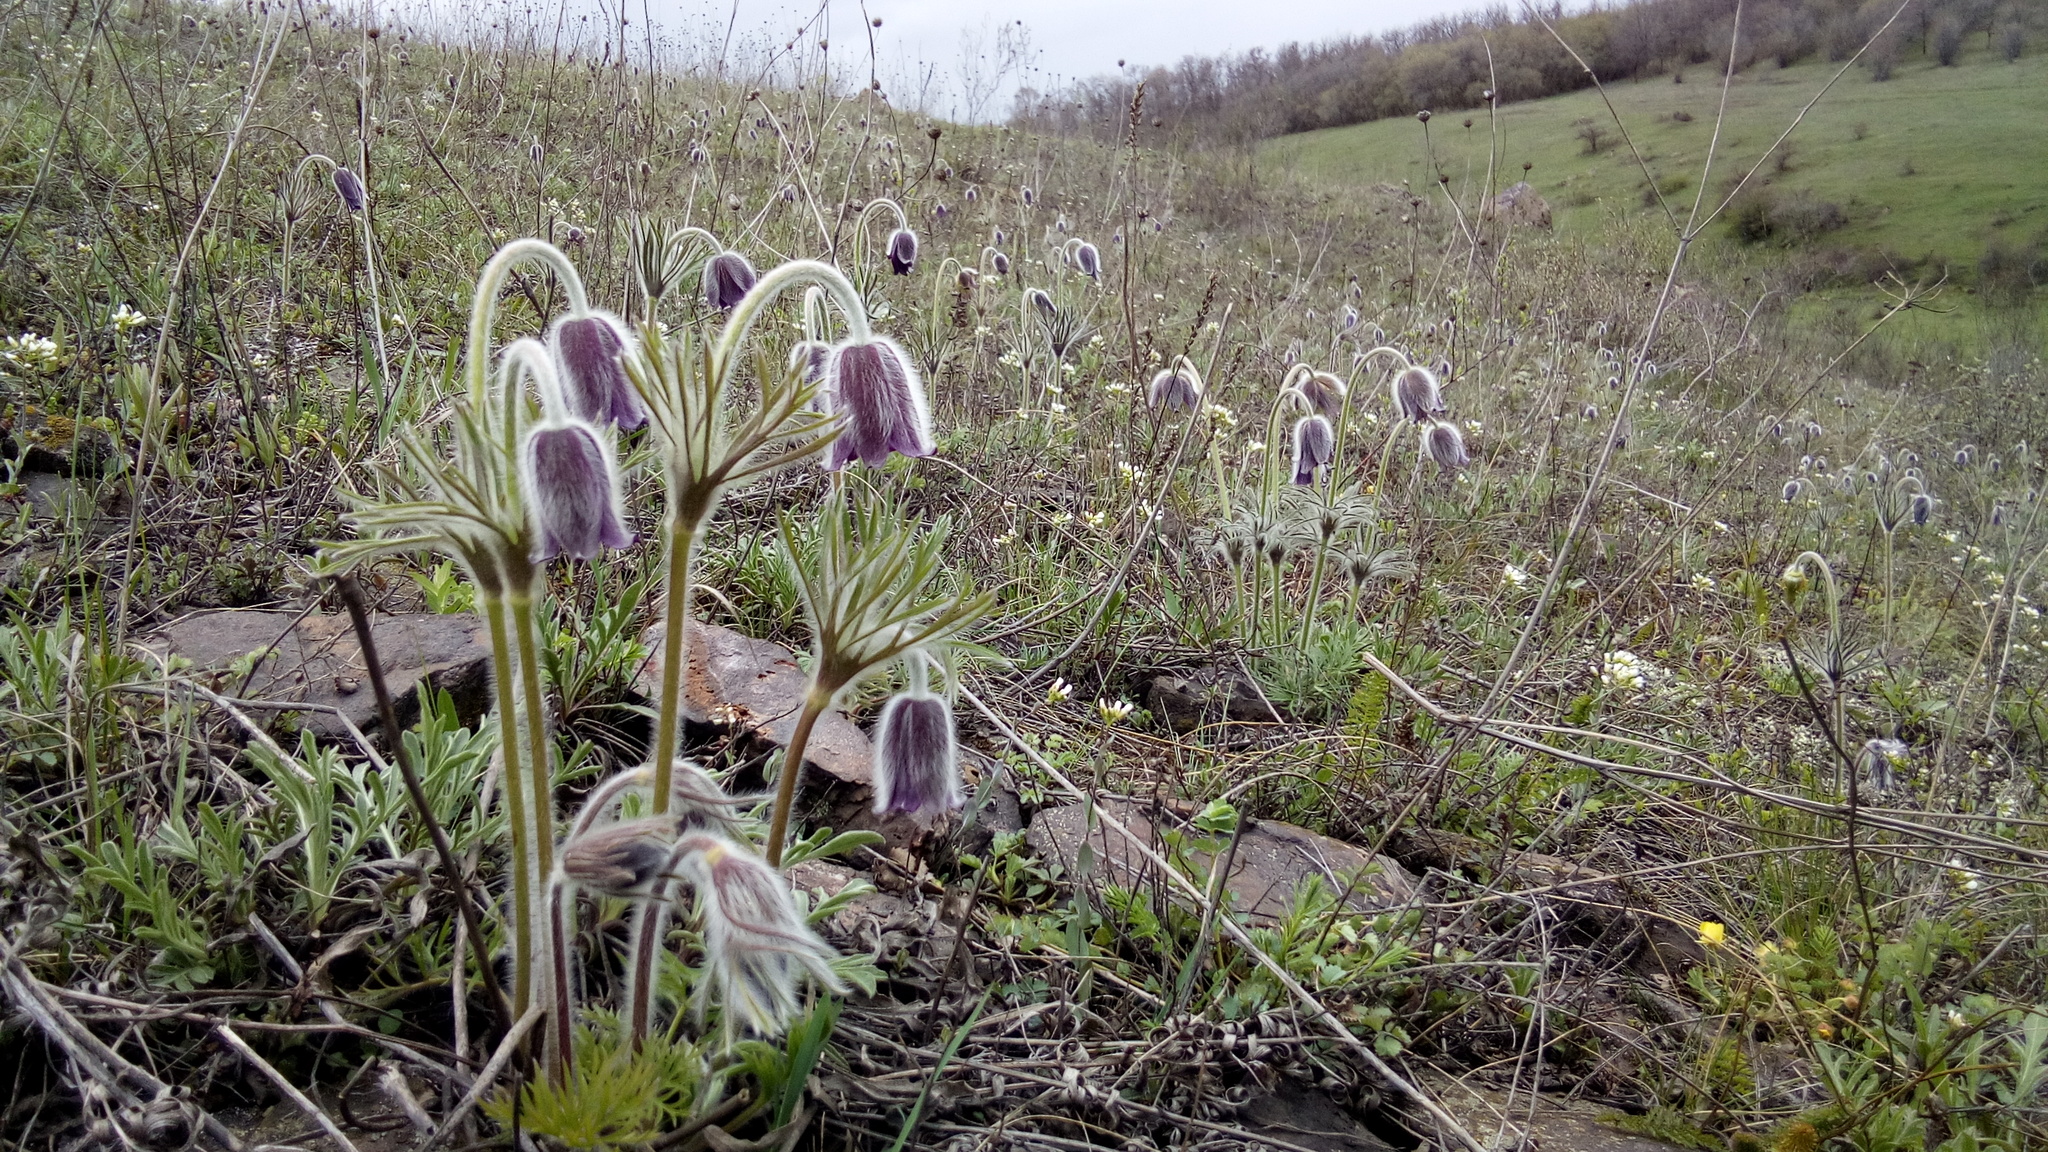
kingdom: Plantae
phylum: Tracheophyta
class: Magnoliopsida
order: Ranunculales
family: Ranunculaceae
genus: Pulsatilla
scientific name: Pulsatilla pratensis
